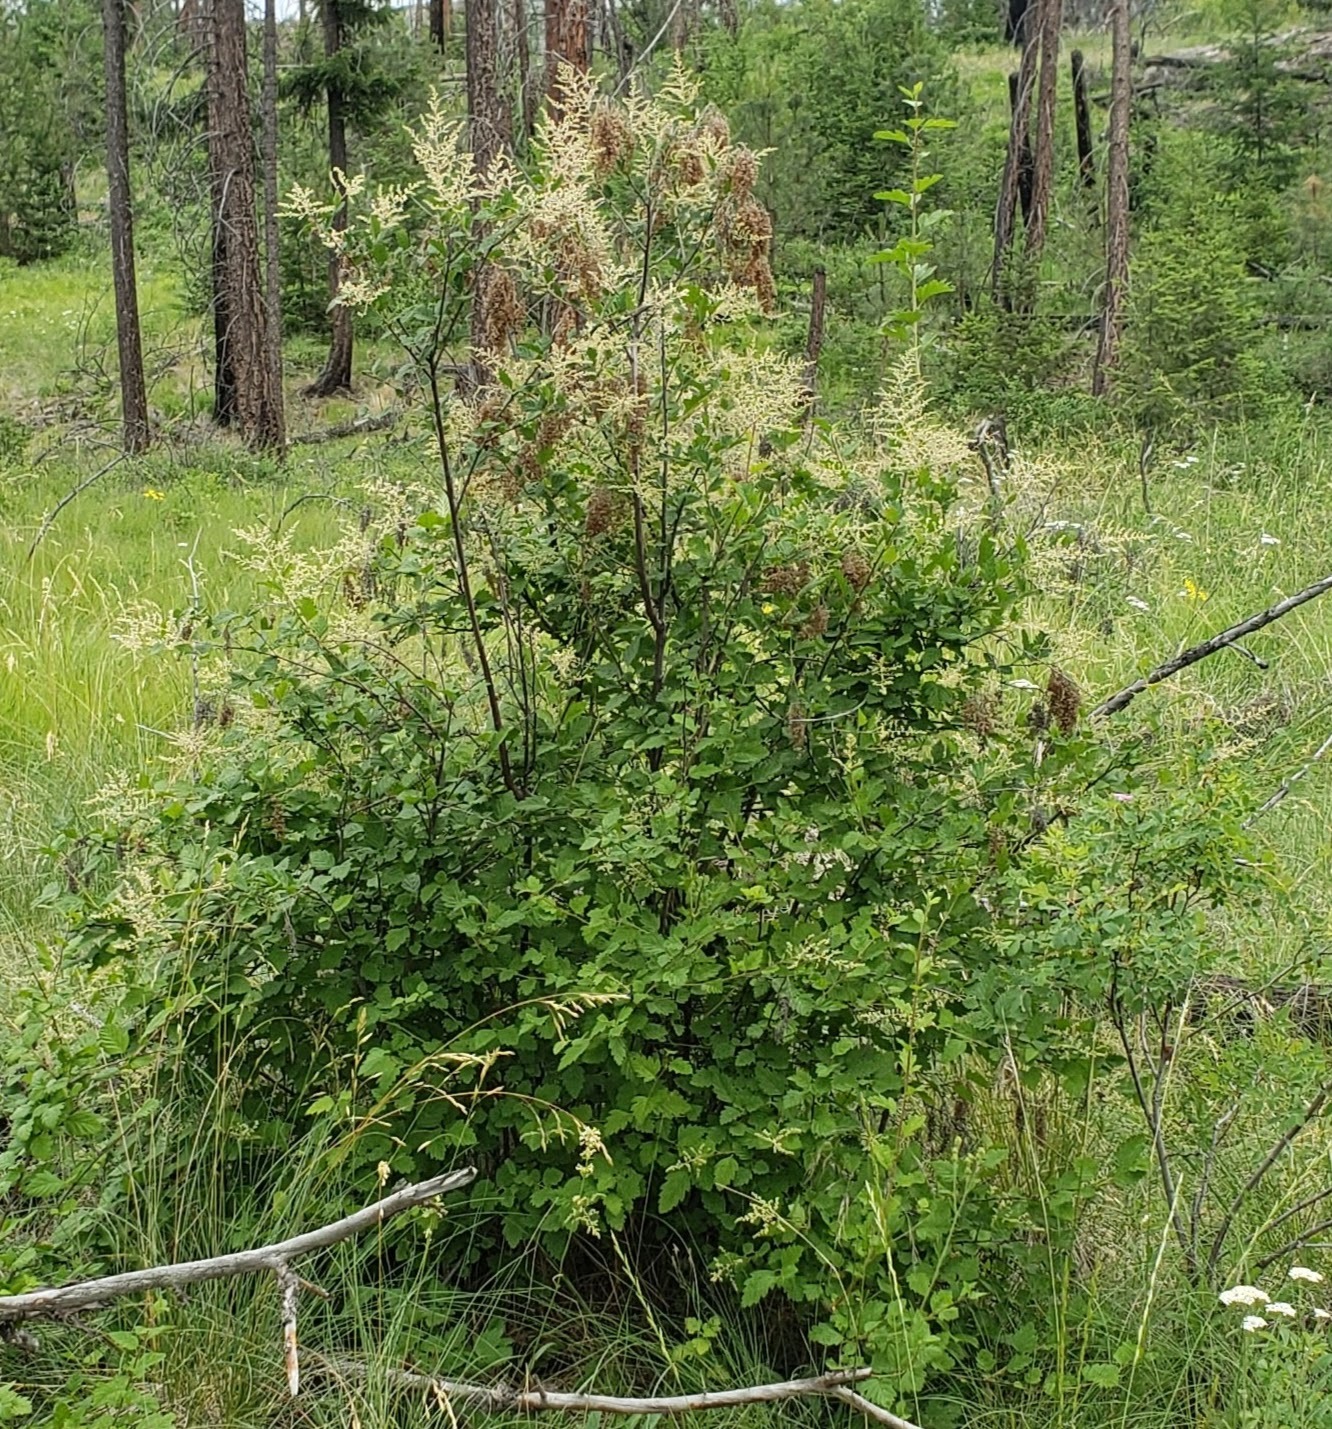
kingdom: Plantae
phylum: Tracheophyta
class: Magnoliopsida
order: Rosales
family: Rosaceae
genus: Holodiscus
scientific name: Holodiscus discolor
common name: Oceanspray
